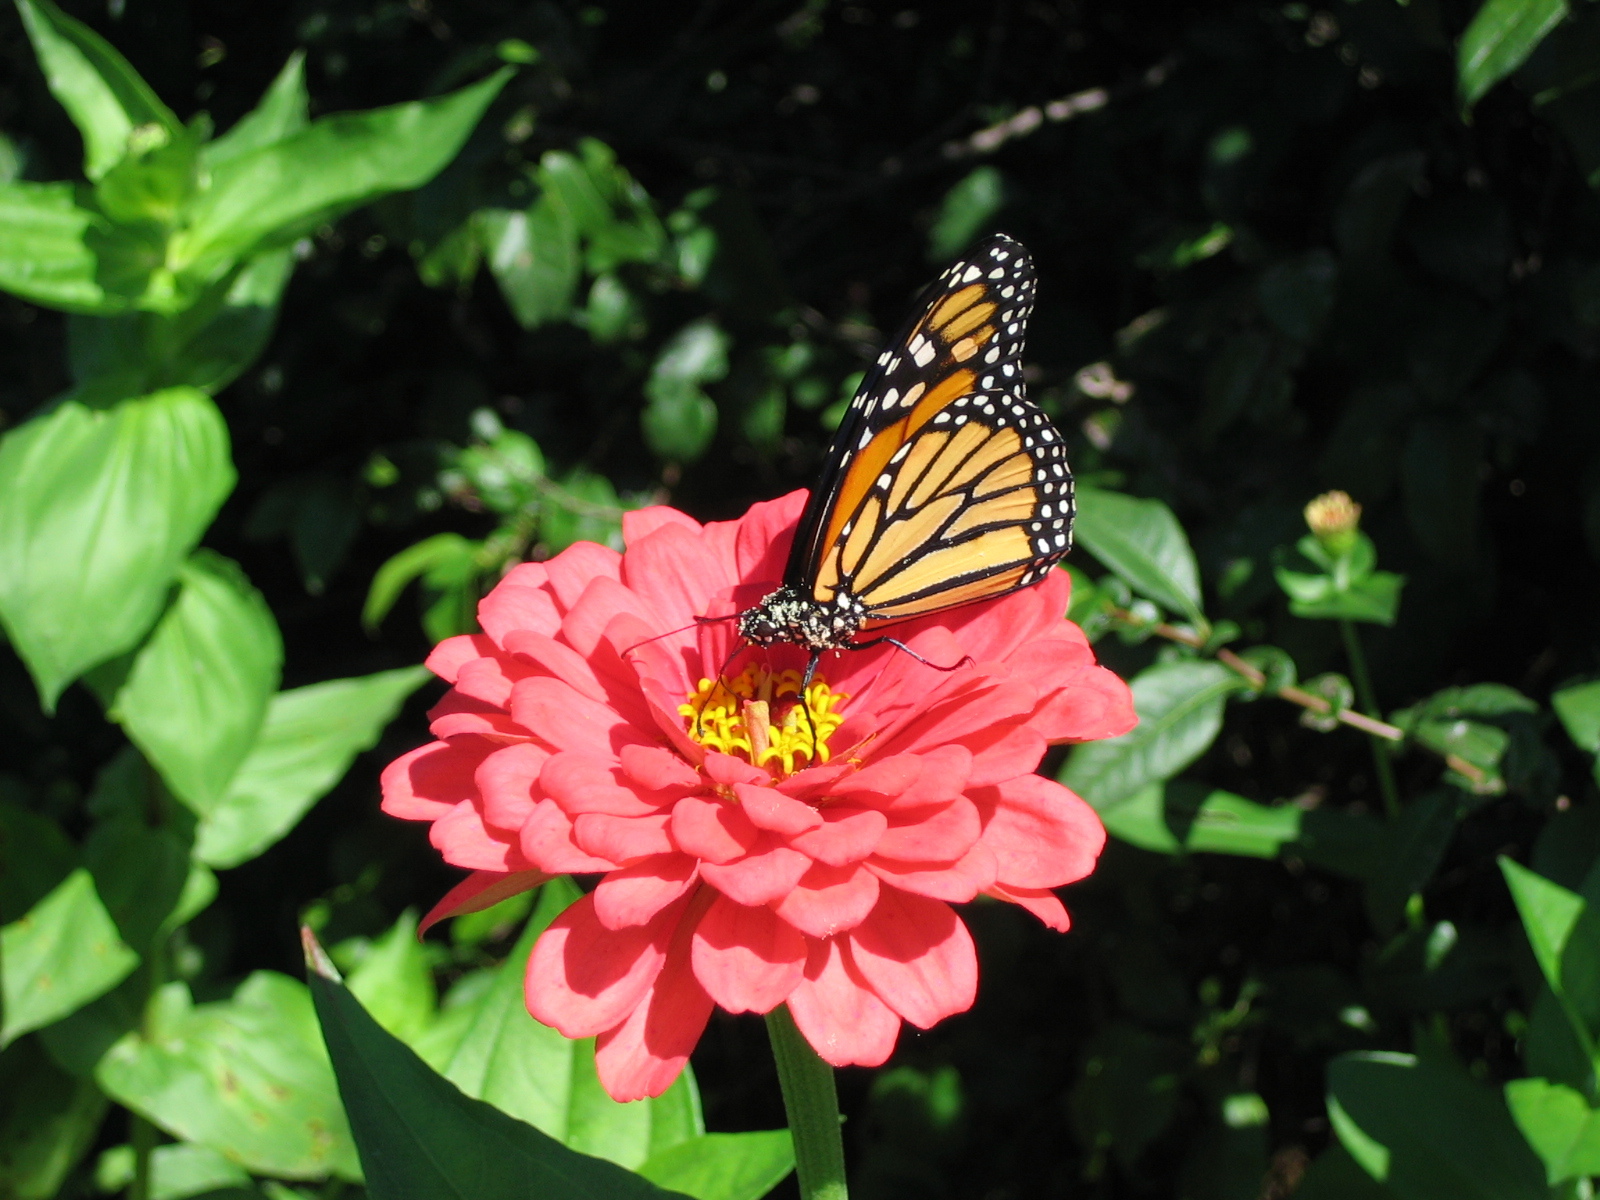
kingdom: Animalia
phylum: Arthropoda
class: Insecta
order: Lepidoptera
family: Nymphalidae
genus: Danaus
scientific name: Danaus plexippus
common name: Monarch
